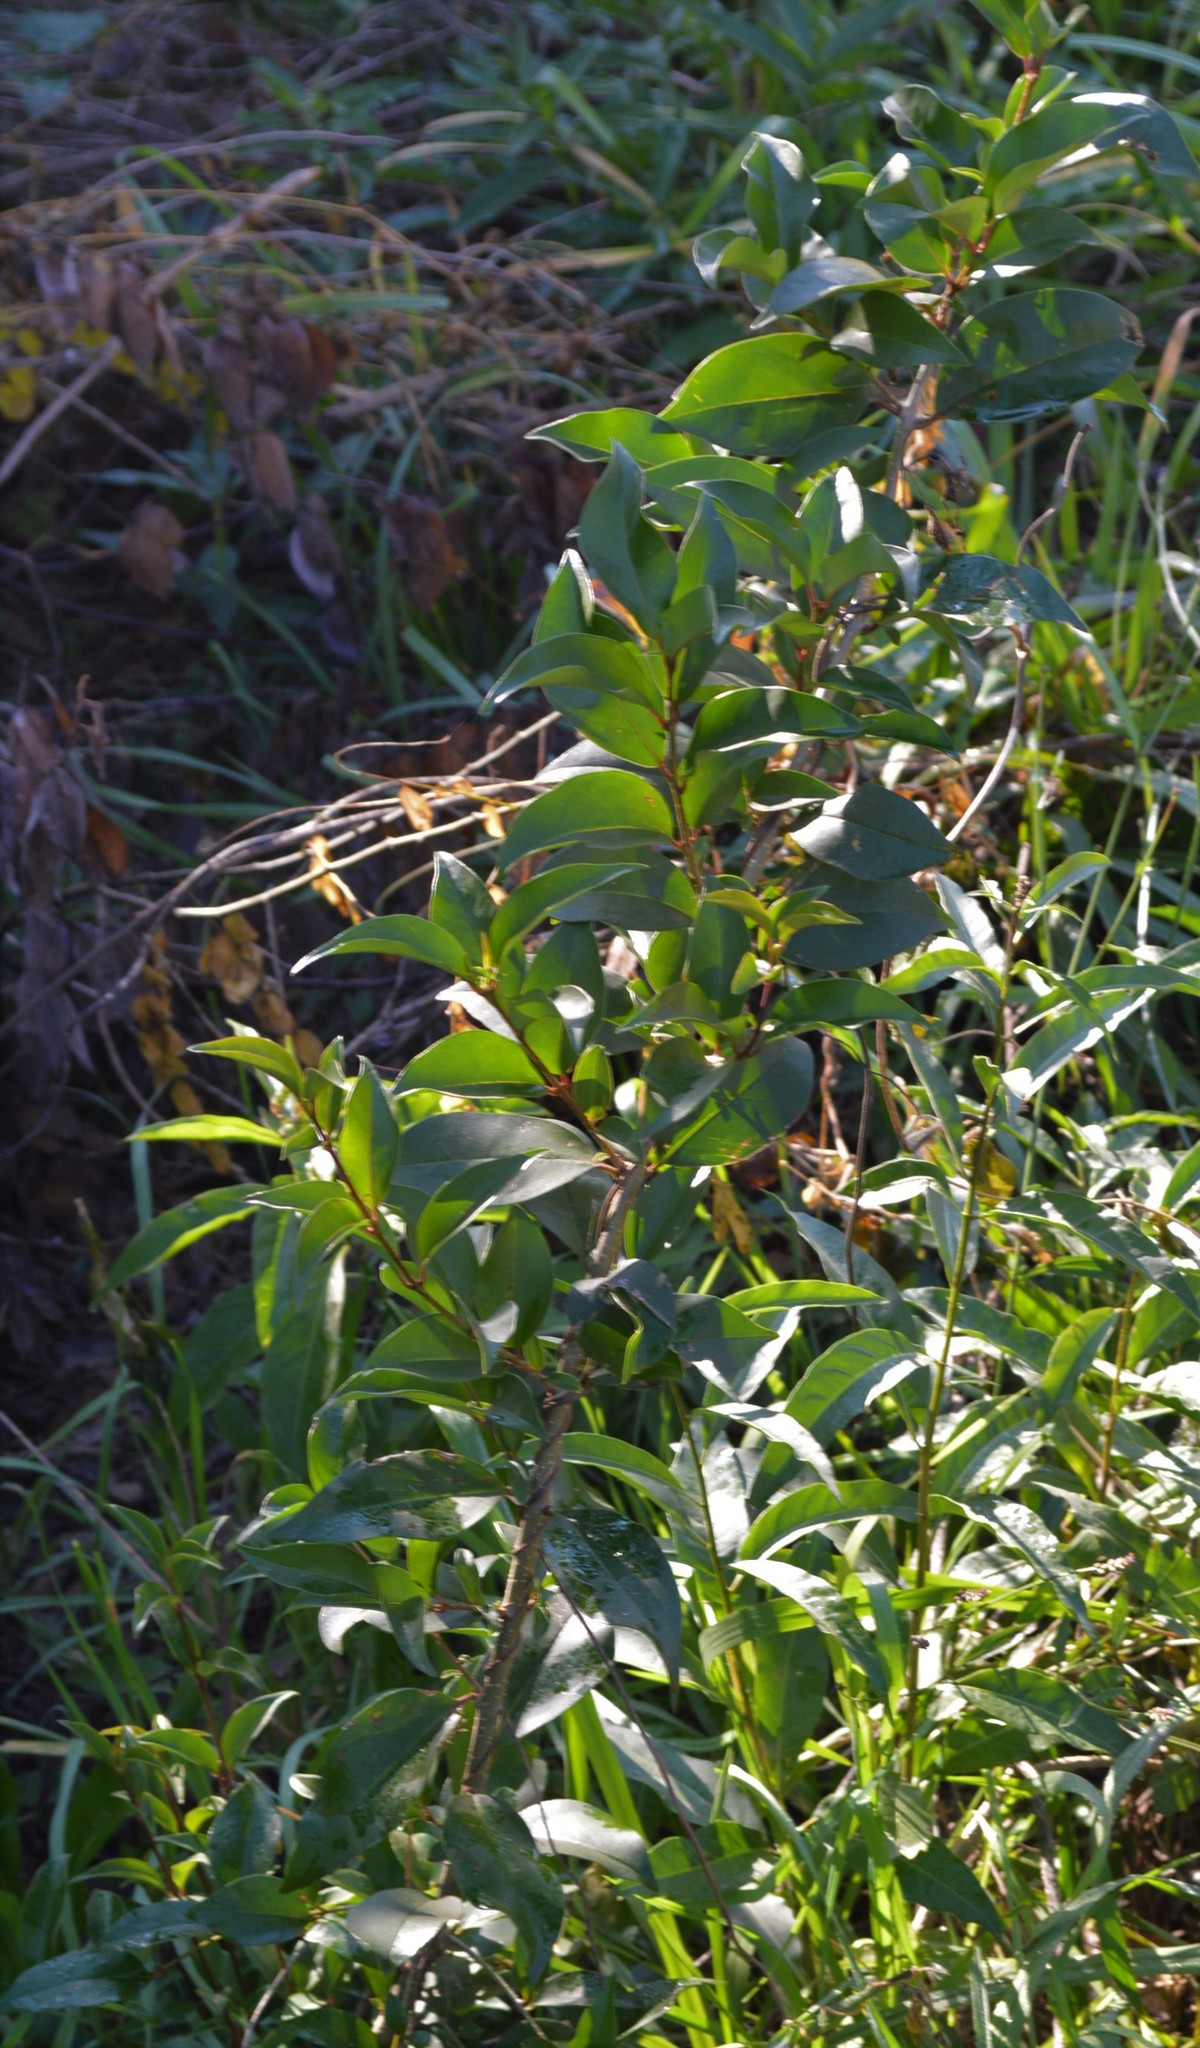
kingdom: Plantae
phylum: Tracheophyta
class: Magnoliopsida
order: Lamiales
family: Oleaceae
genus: Ligustrum
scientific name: Ligustrum lucidum
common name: Glossy privet
